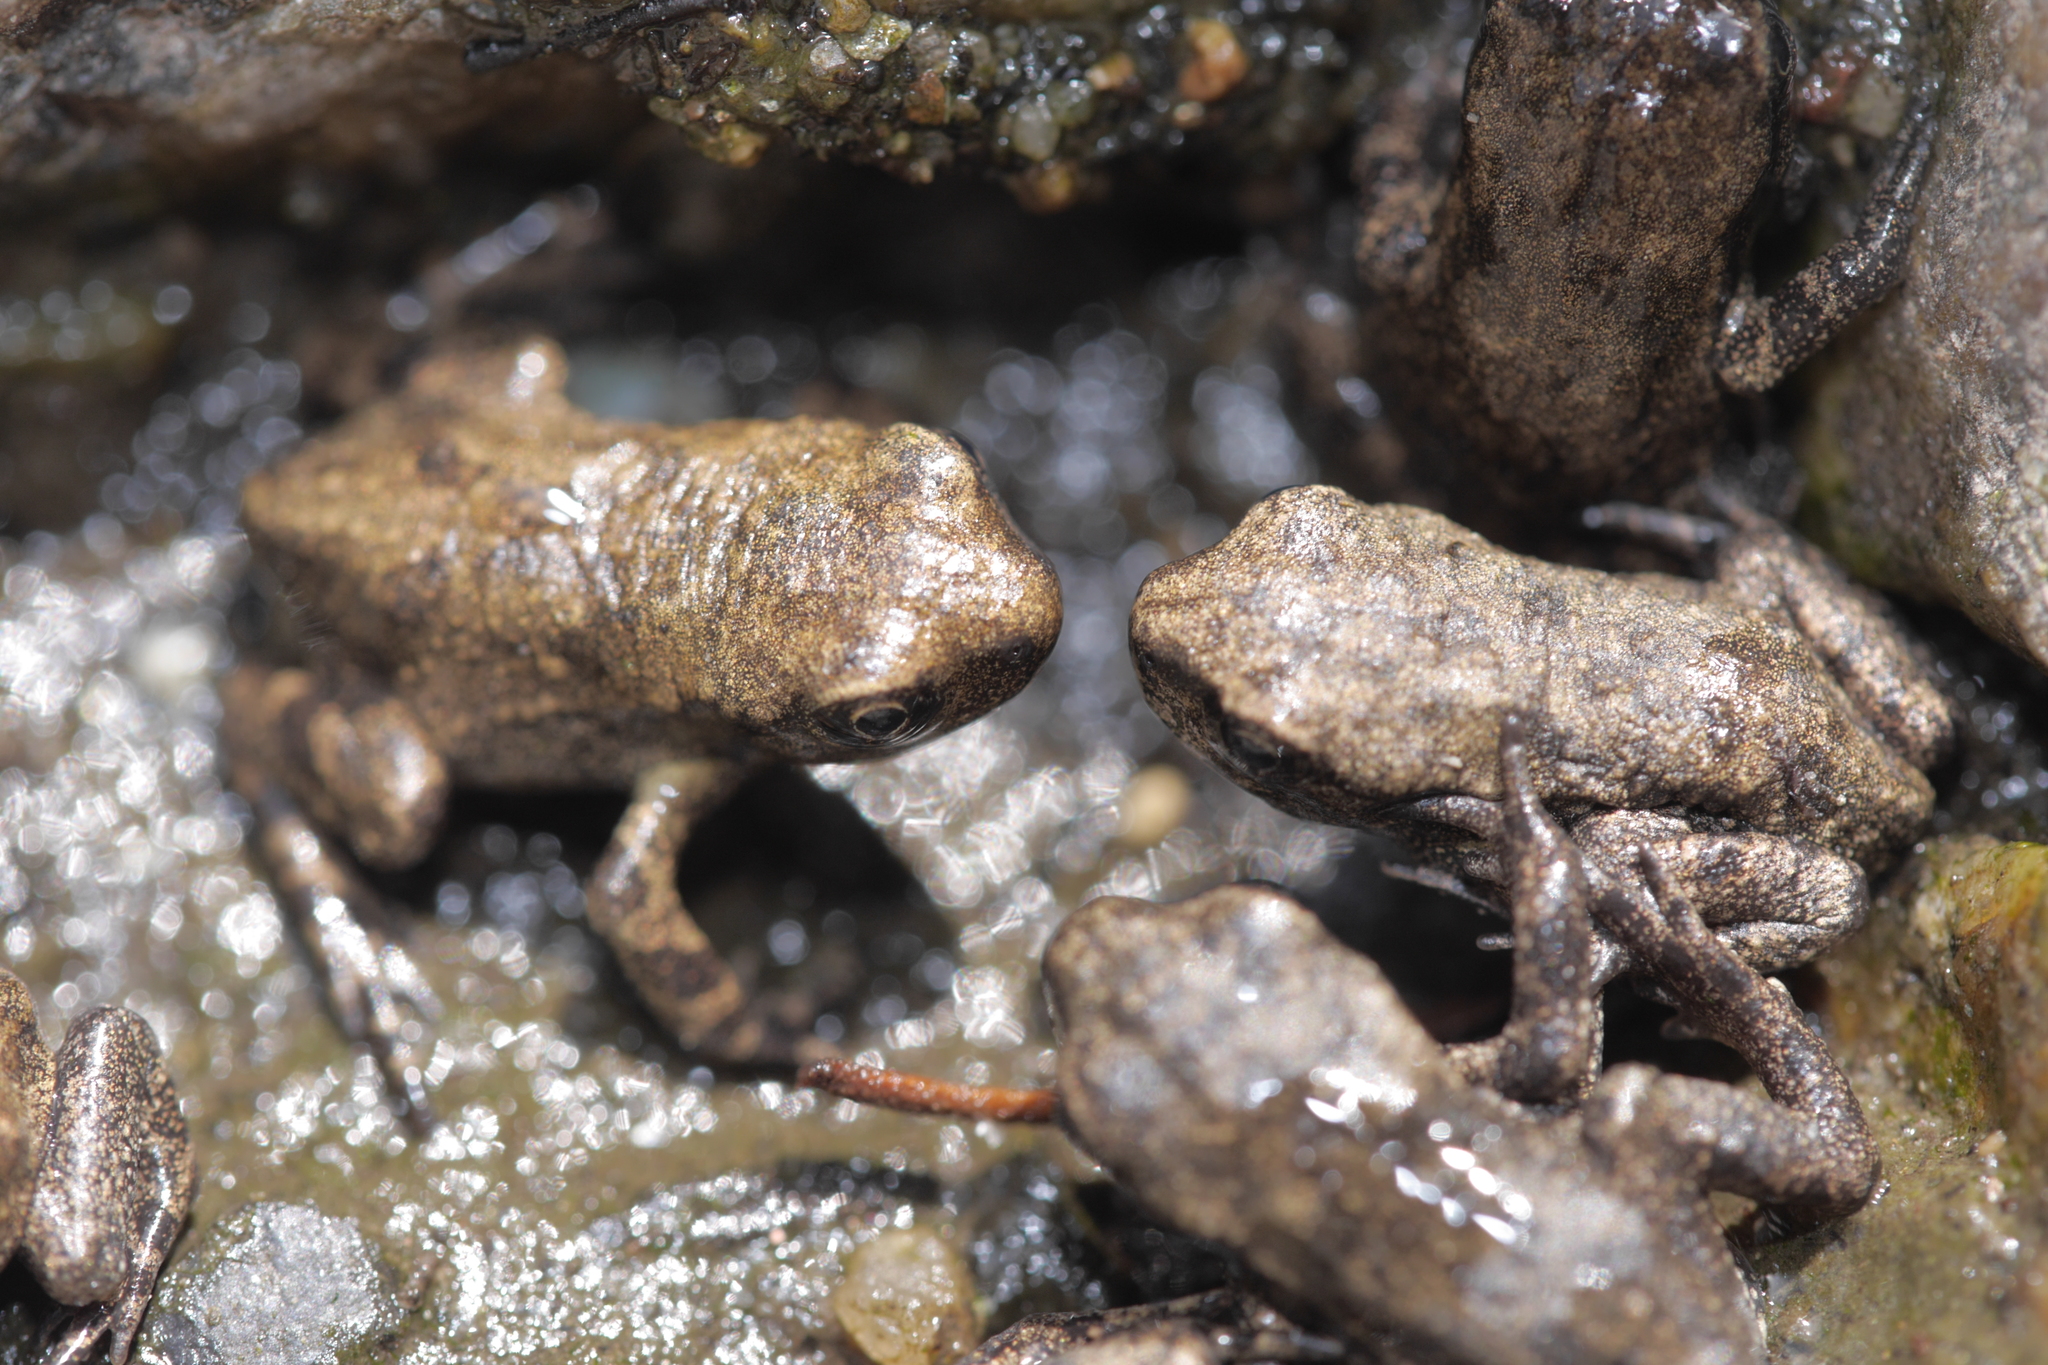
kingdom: Animalia
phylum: Chordata
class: Amphibia
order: Anura
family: Bufonidae
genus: Bufo
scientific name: Bufo spinosus
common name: Western common toad
